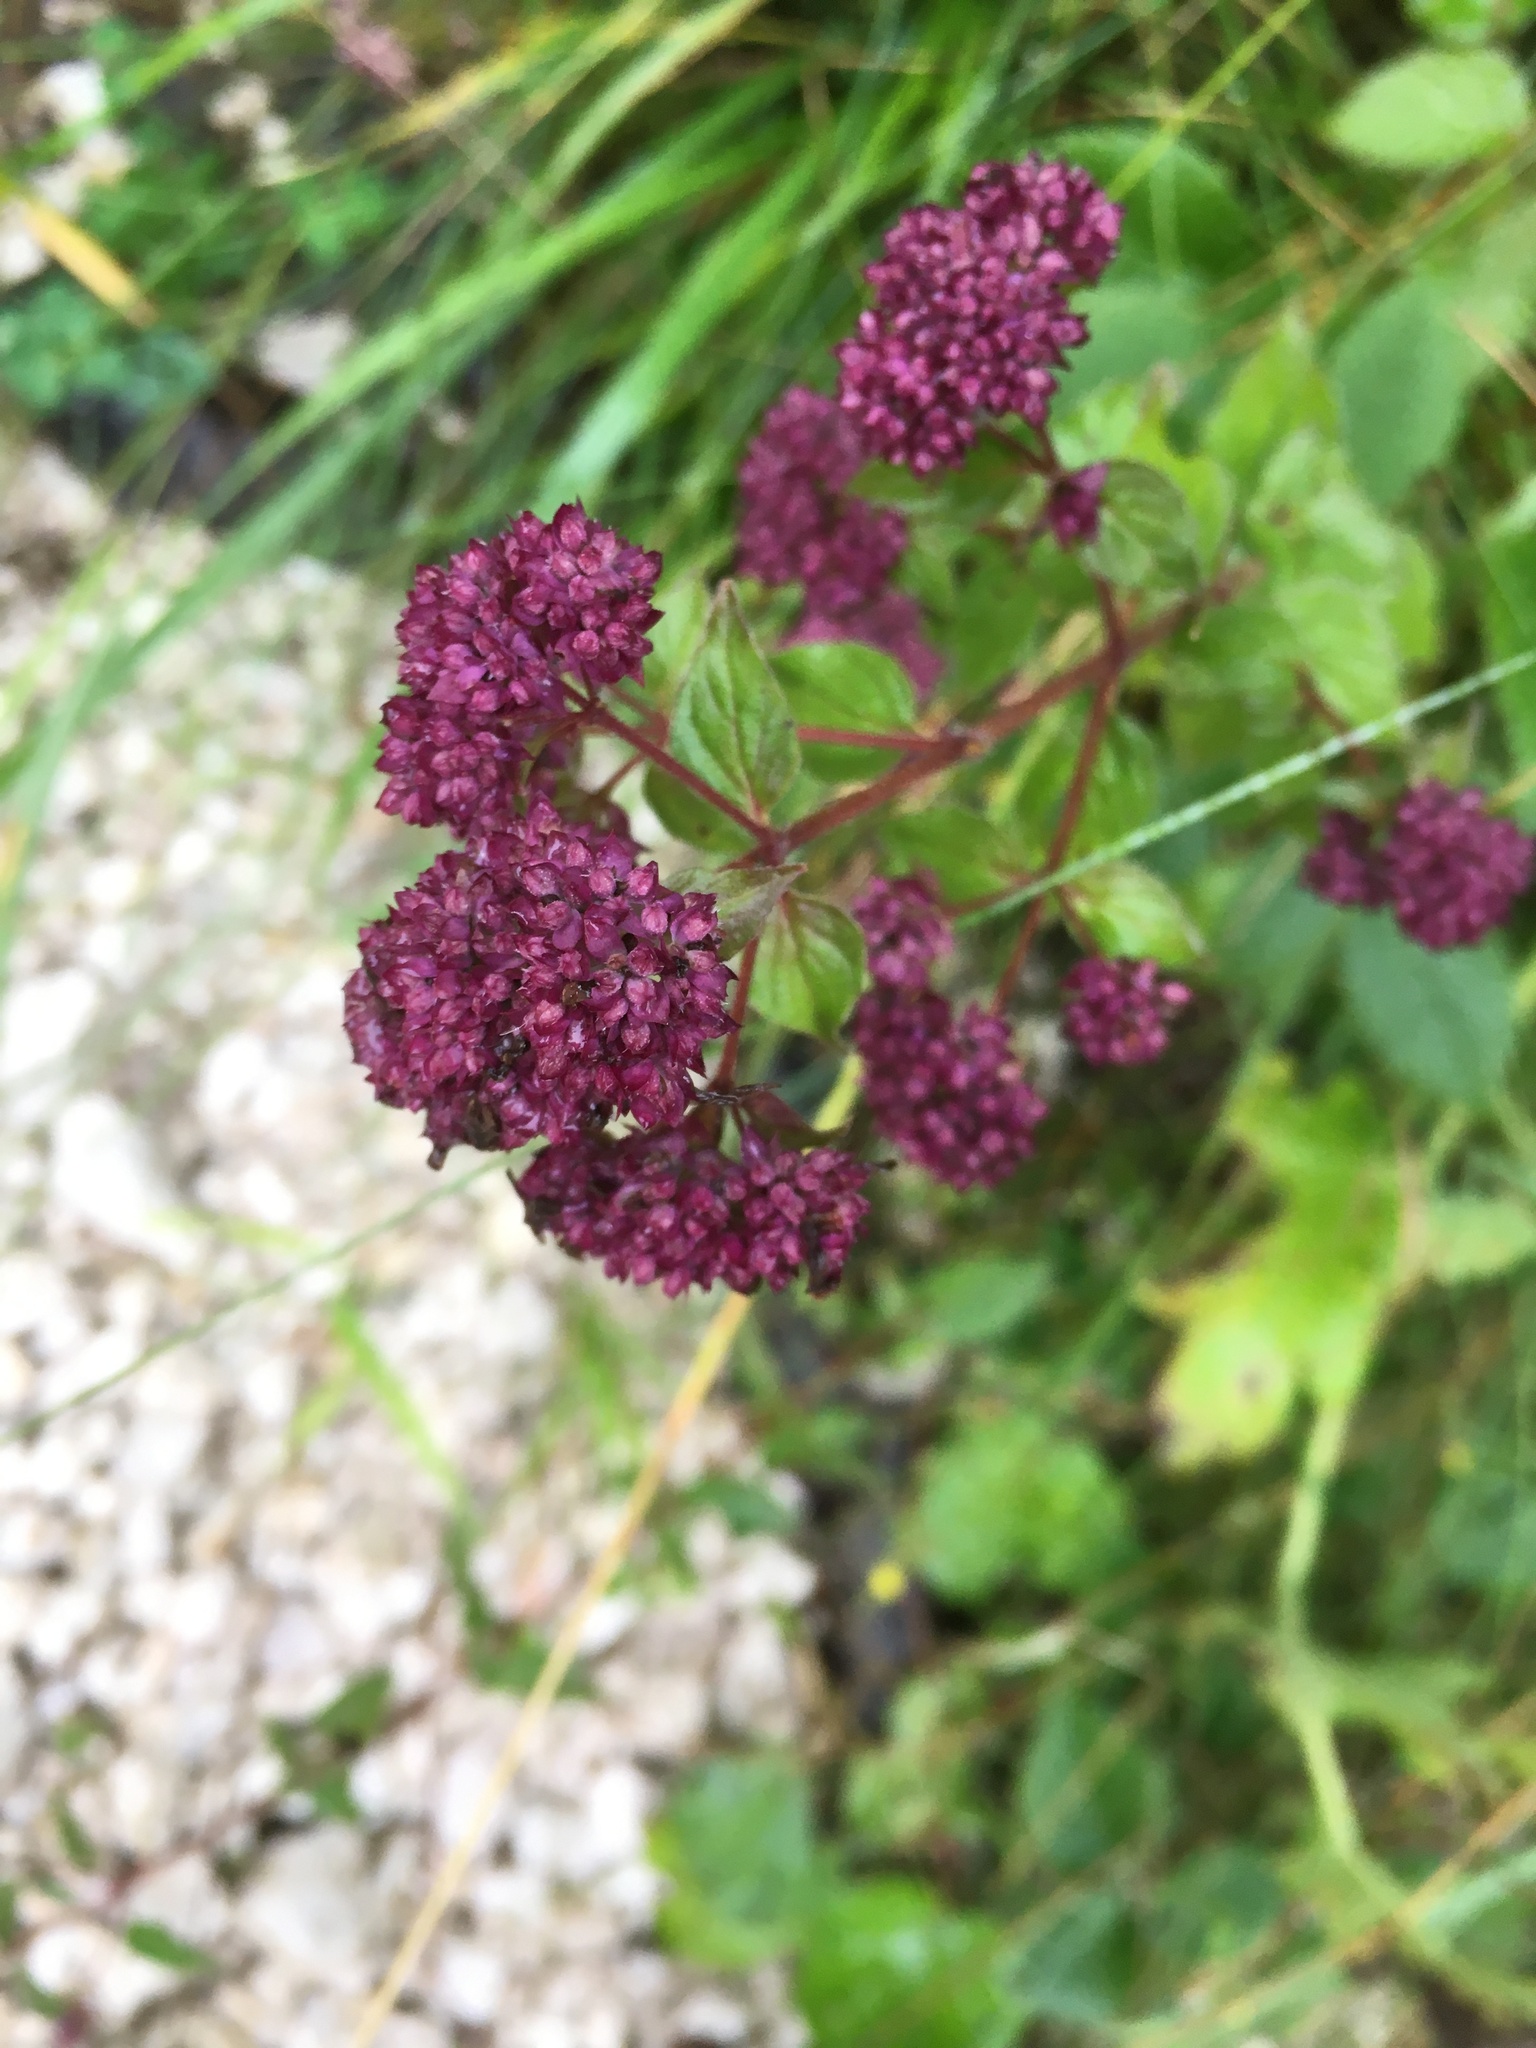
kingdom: Plantae
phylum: Tracheophyta
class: Magnoliopsida
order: Lamiales
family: Lamiaceae
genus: Origanum
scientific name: Origanum vulgare
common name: Wild marjoram
